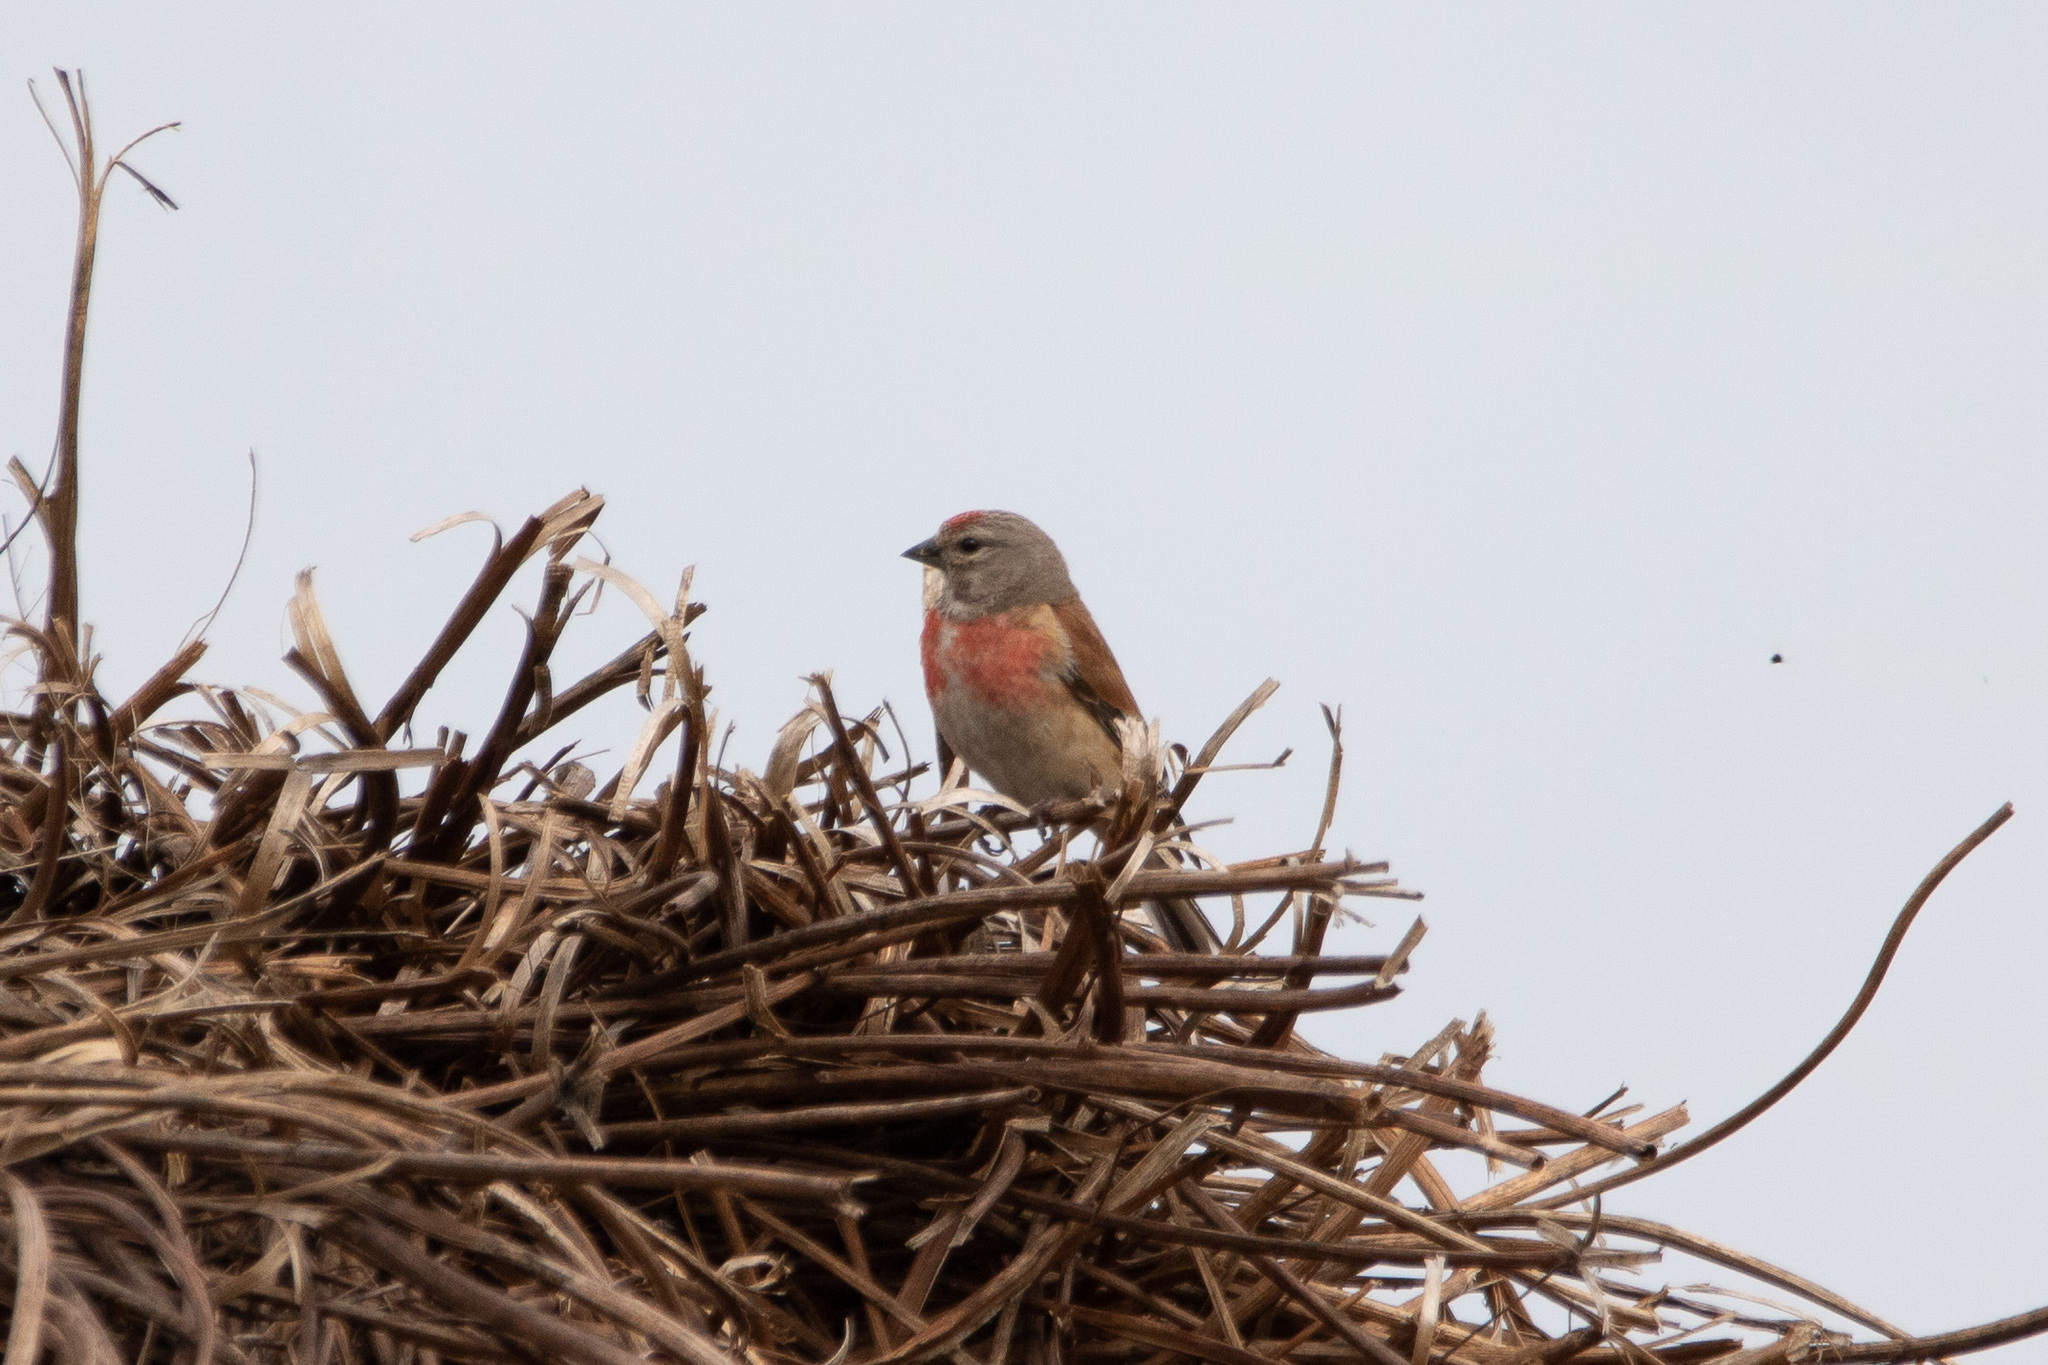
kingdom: Animalia
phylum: Chordata
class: Aves
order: Passeriformes
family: Fringillidae
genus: Linaria
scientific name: Linaria cannabina
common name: Common linnet
